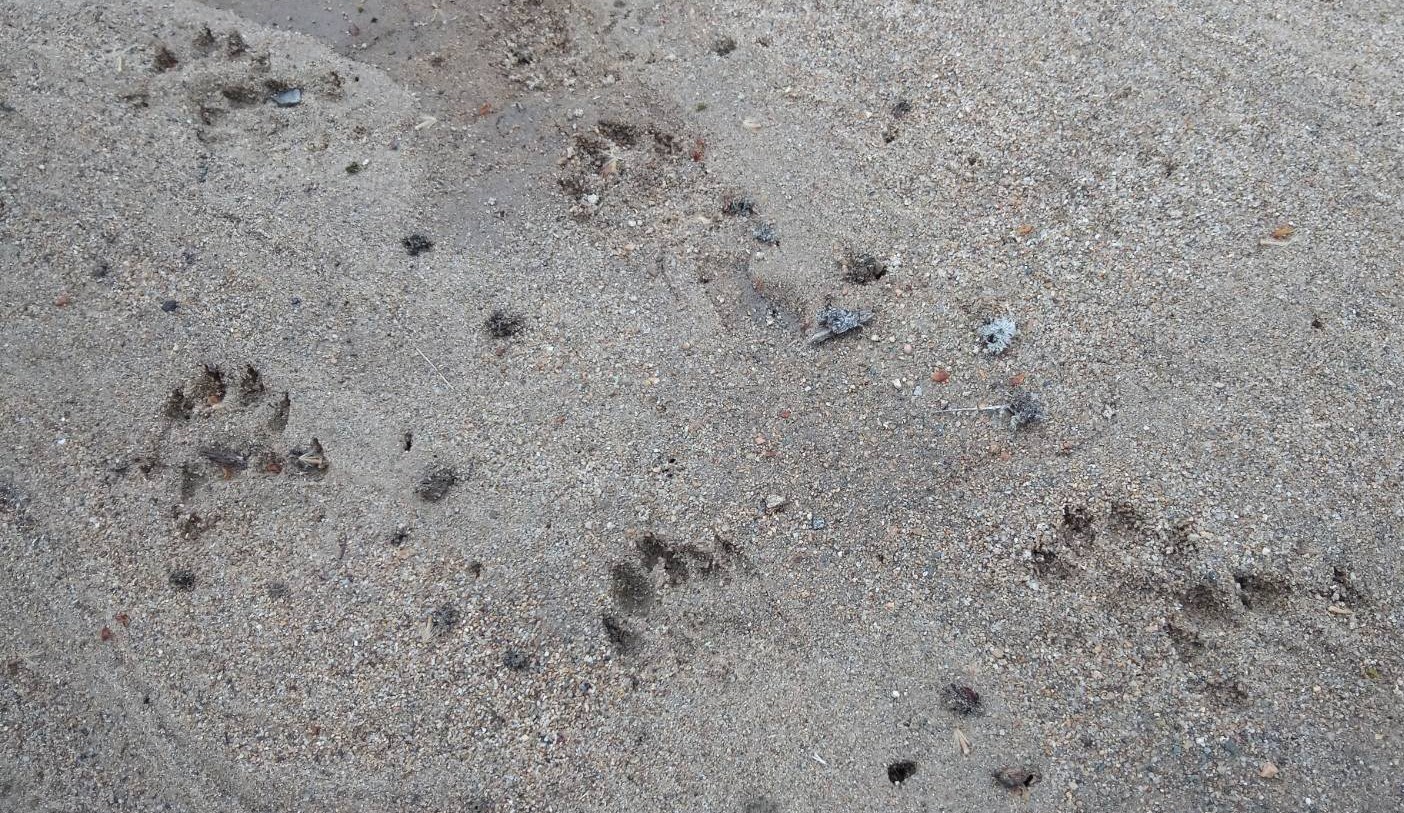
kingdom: Animalia
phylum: Chordata
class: Mammalia
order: Carnivora
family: Mustelidae
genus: Lontra
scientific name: Lontra canadensis
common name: North american river otter
